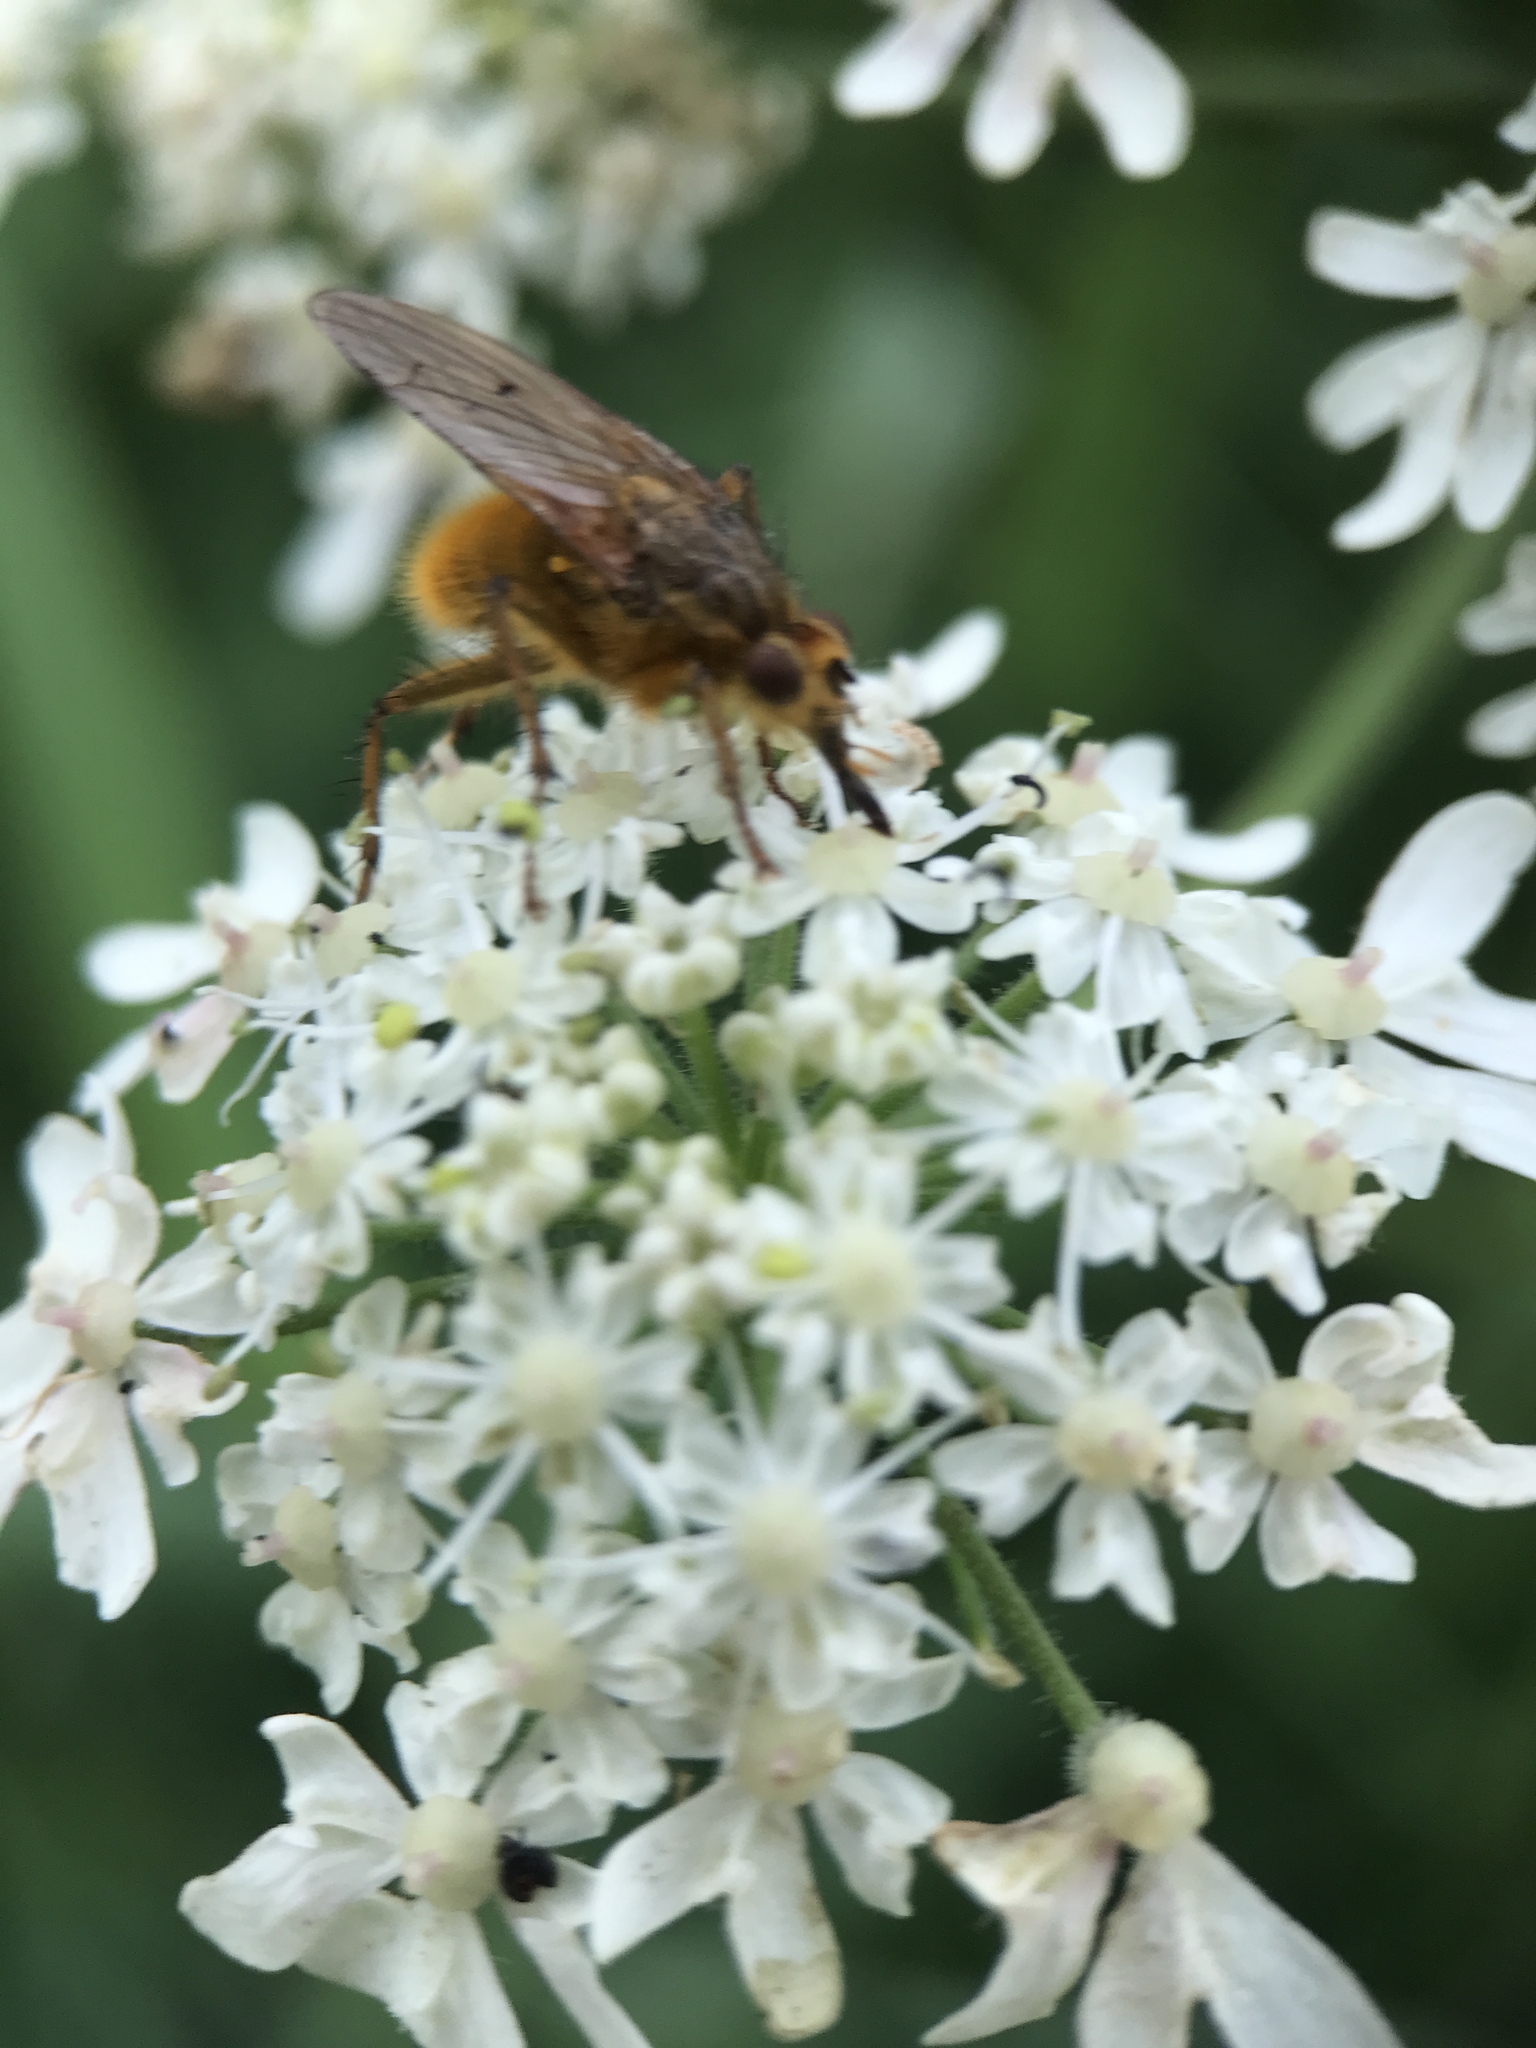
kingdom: Animalia
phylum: Arthropoda
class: Insecta
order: Diptera
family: Scathophagidae
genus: Scathophaga
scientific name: Scathophaga stercoraria
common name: Yellow dung fly
